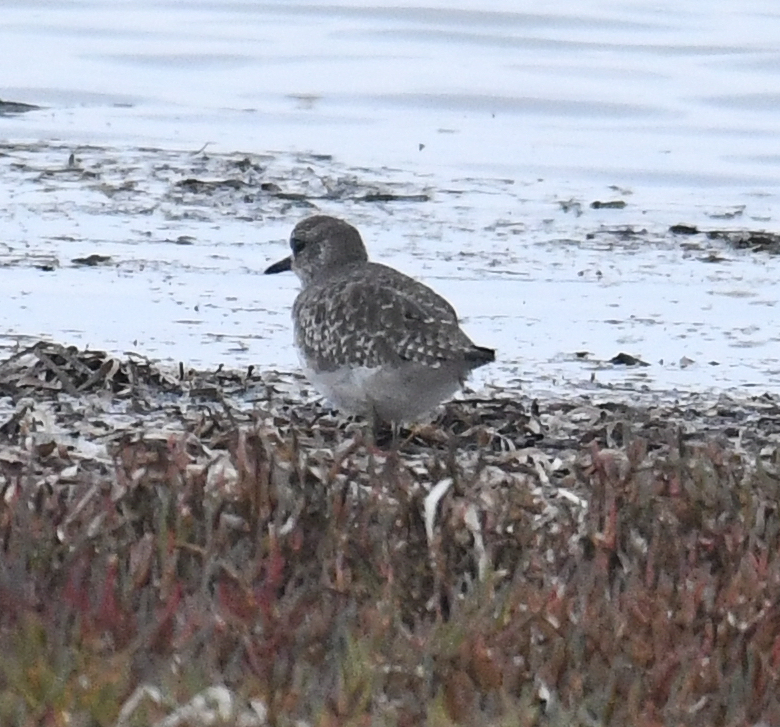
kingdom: Animalia
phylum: Chordata
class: Aves
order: Charadriiformes
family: Charadriidae
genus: Pluvialis
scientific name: Pluvialis squatarola
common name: Grey plover
